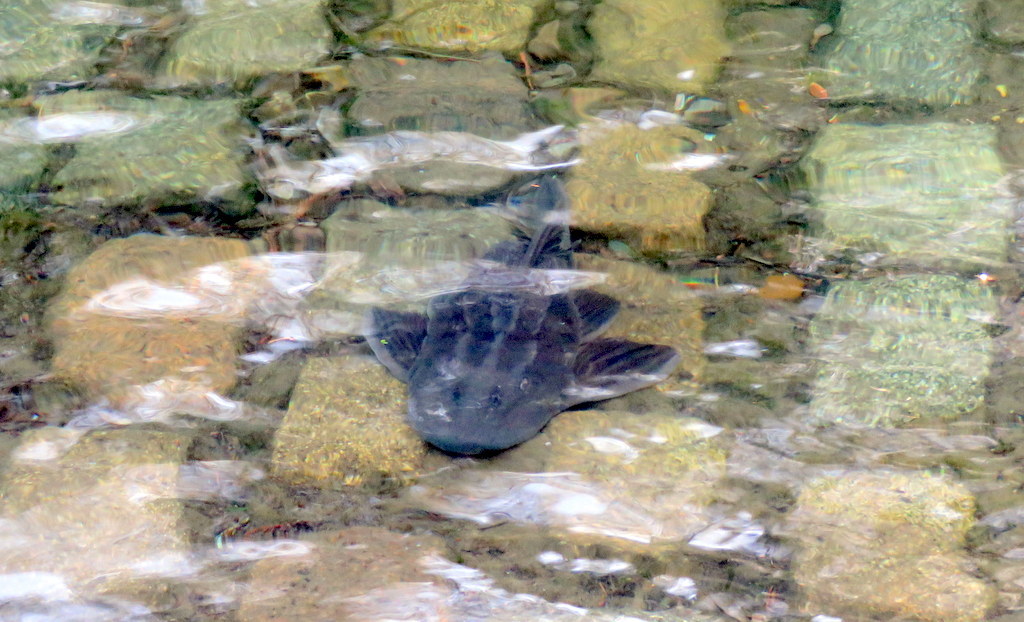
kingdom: Animalia
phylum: Chordata
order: Siluriformes
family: Loricariidae
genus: Hypostomus
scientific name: Hypostomus commersoni
